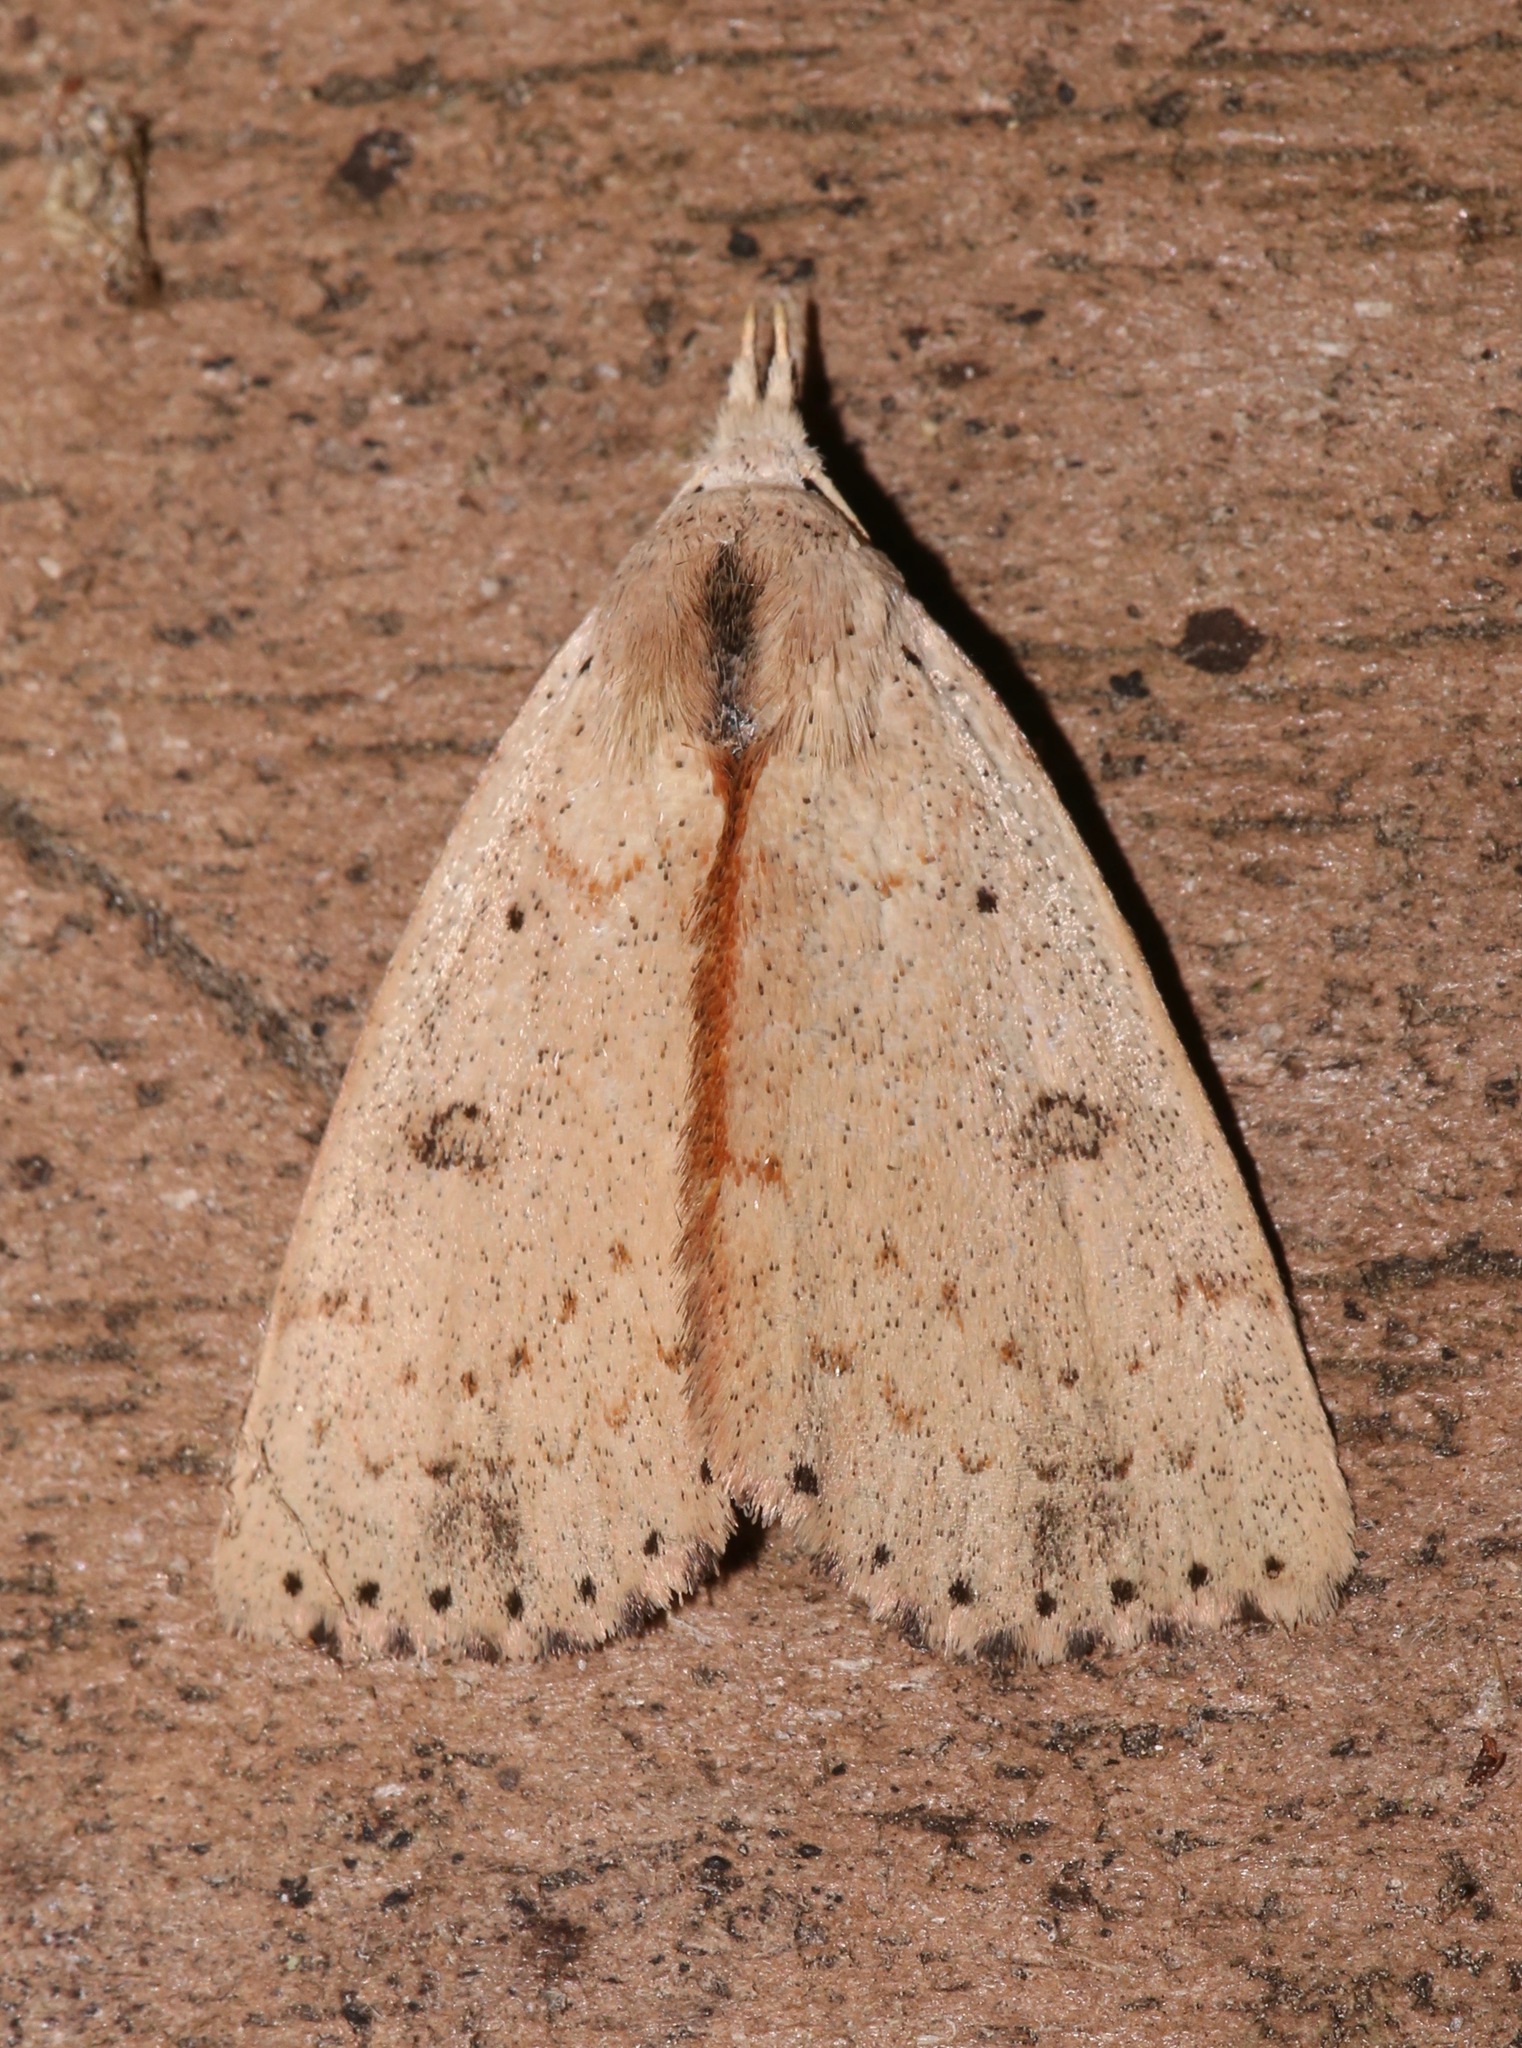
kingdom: Animalia
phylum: Arthropoda
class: Insecta
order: Lepidoptera
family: Erebidae
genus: Scolecocampa
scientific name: Scolecocampa liburna
